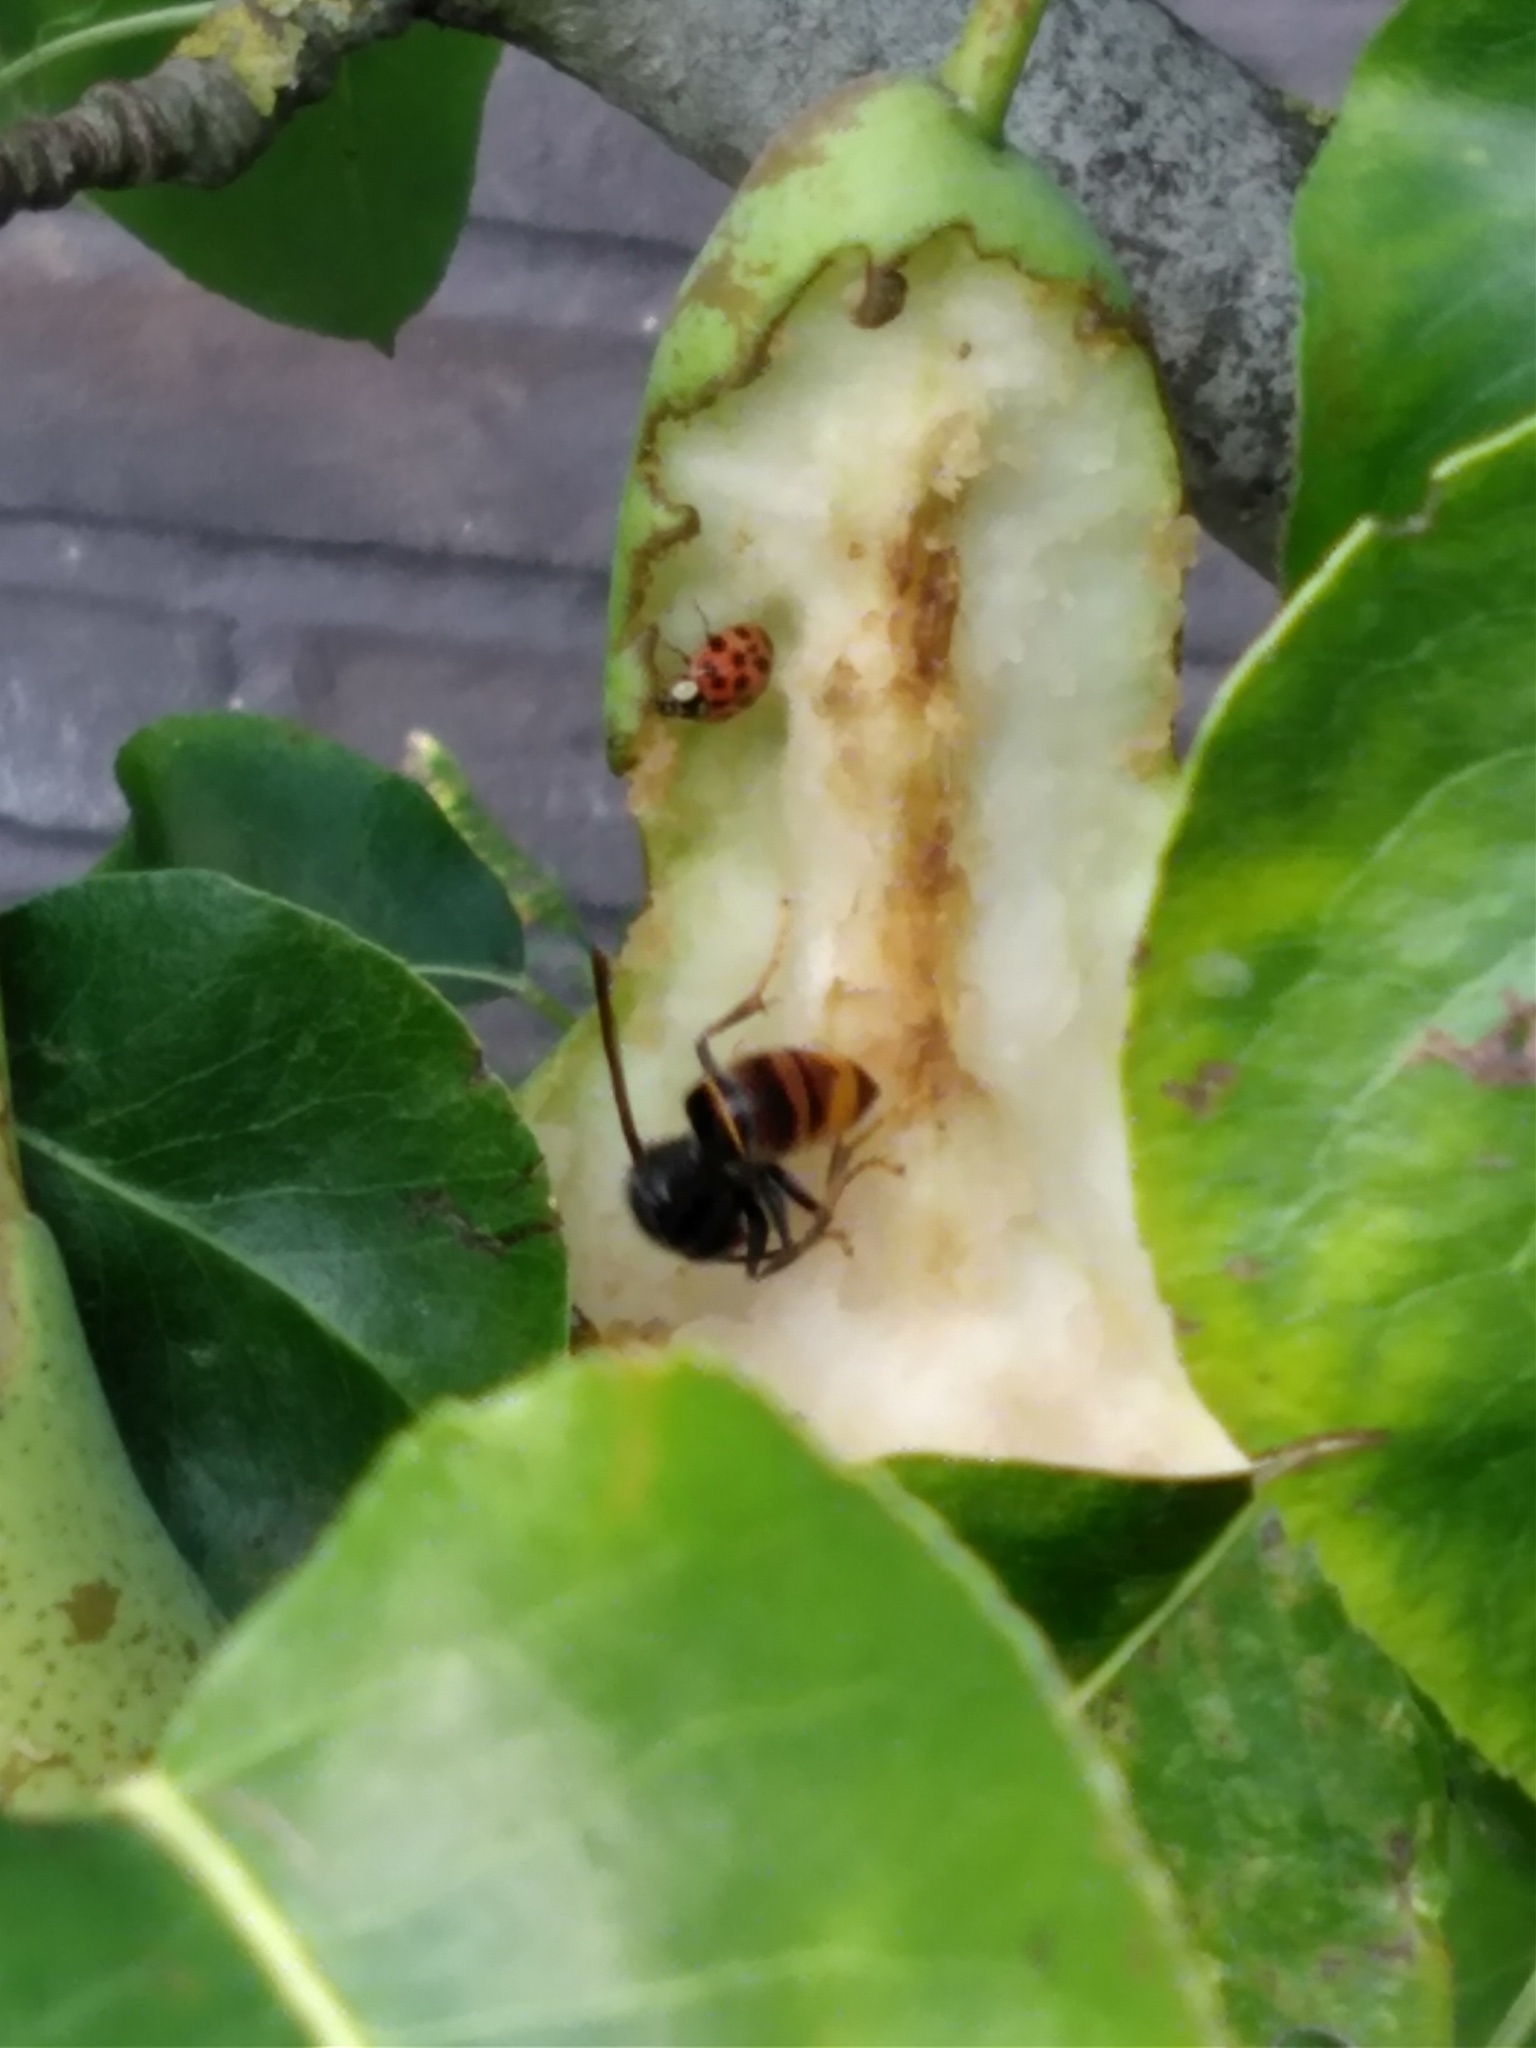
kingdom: Animalia
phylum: Arthropoda
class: Insecta
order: Hymenoptera
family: Vespidae
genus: Vespa
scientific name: Vespa velutina
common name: Asian hornet
